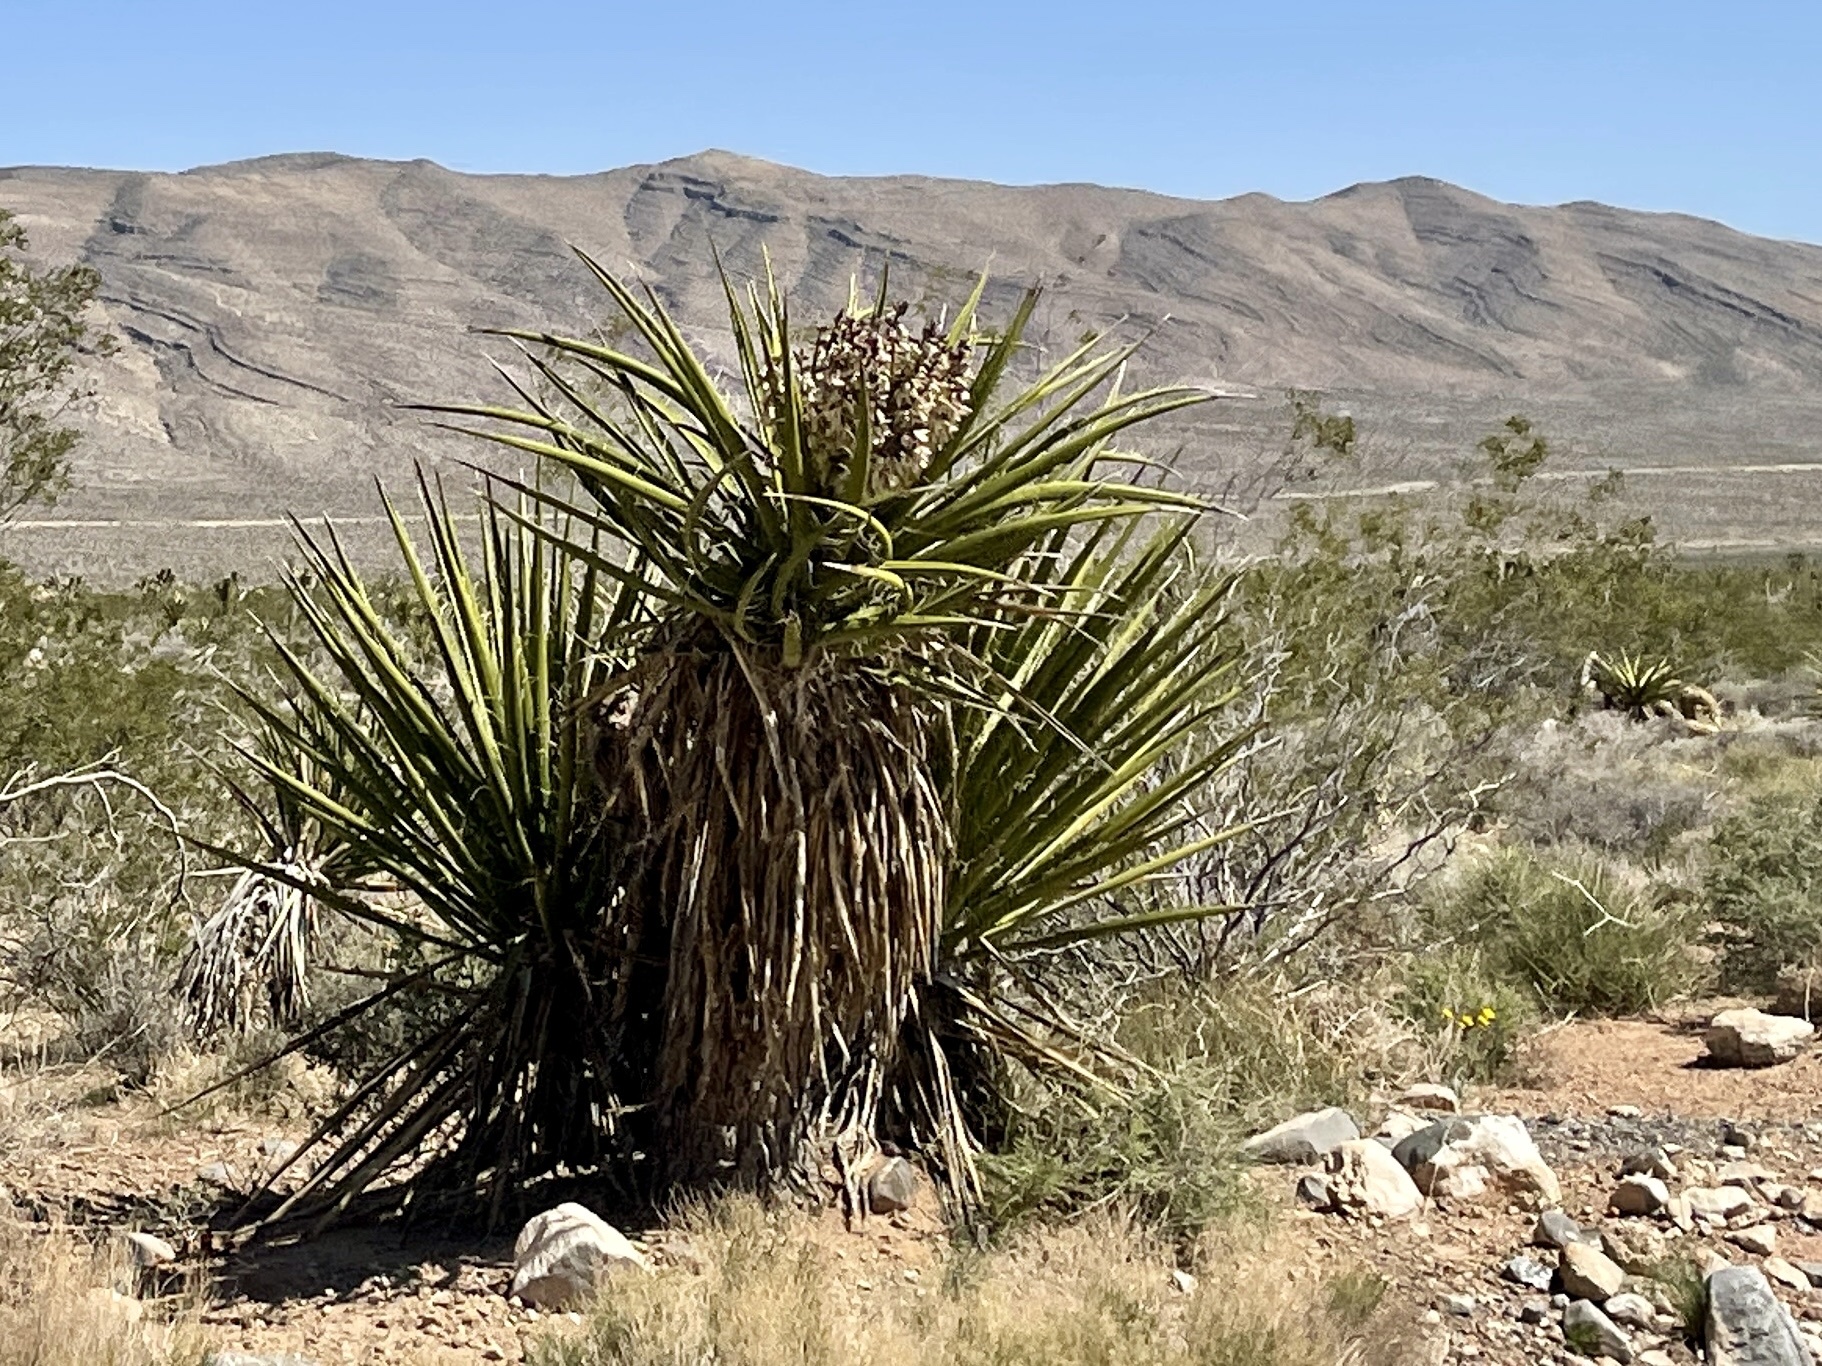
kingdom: Plantae
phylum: Tracheophyta
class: Liliopsida
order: Asparagales
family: Asparagaceae
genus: Yucca
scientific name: Yucca schidigera
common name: Mojave yucca
